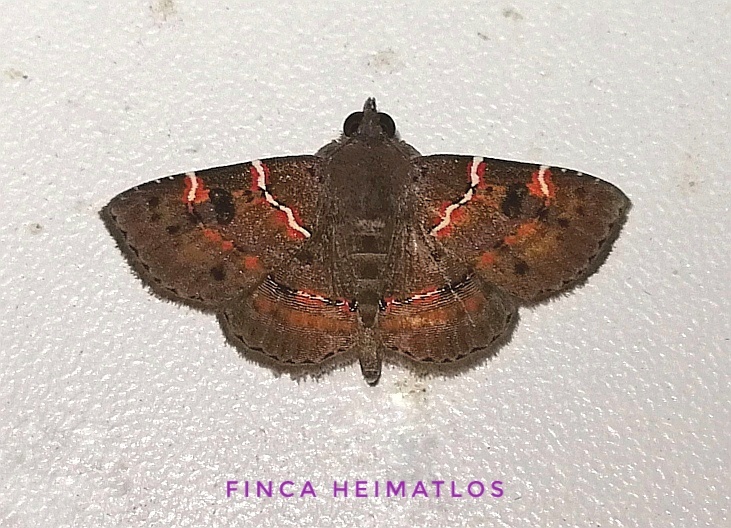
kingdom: Animalia
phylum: Arthropoda
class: Insecta
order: Lepidoptera
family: Erebidae
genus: Antiblemma
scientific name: Antiblemma rubida
